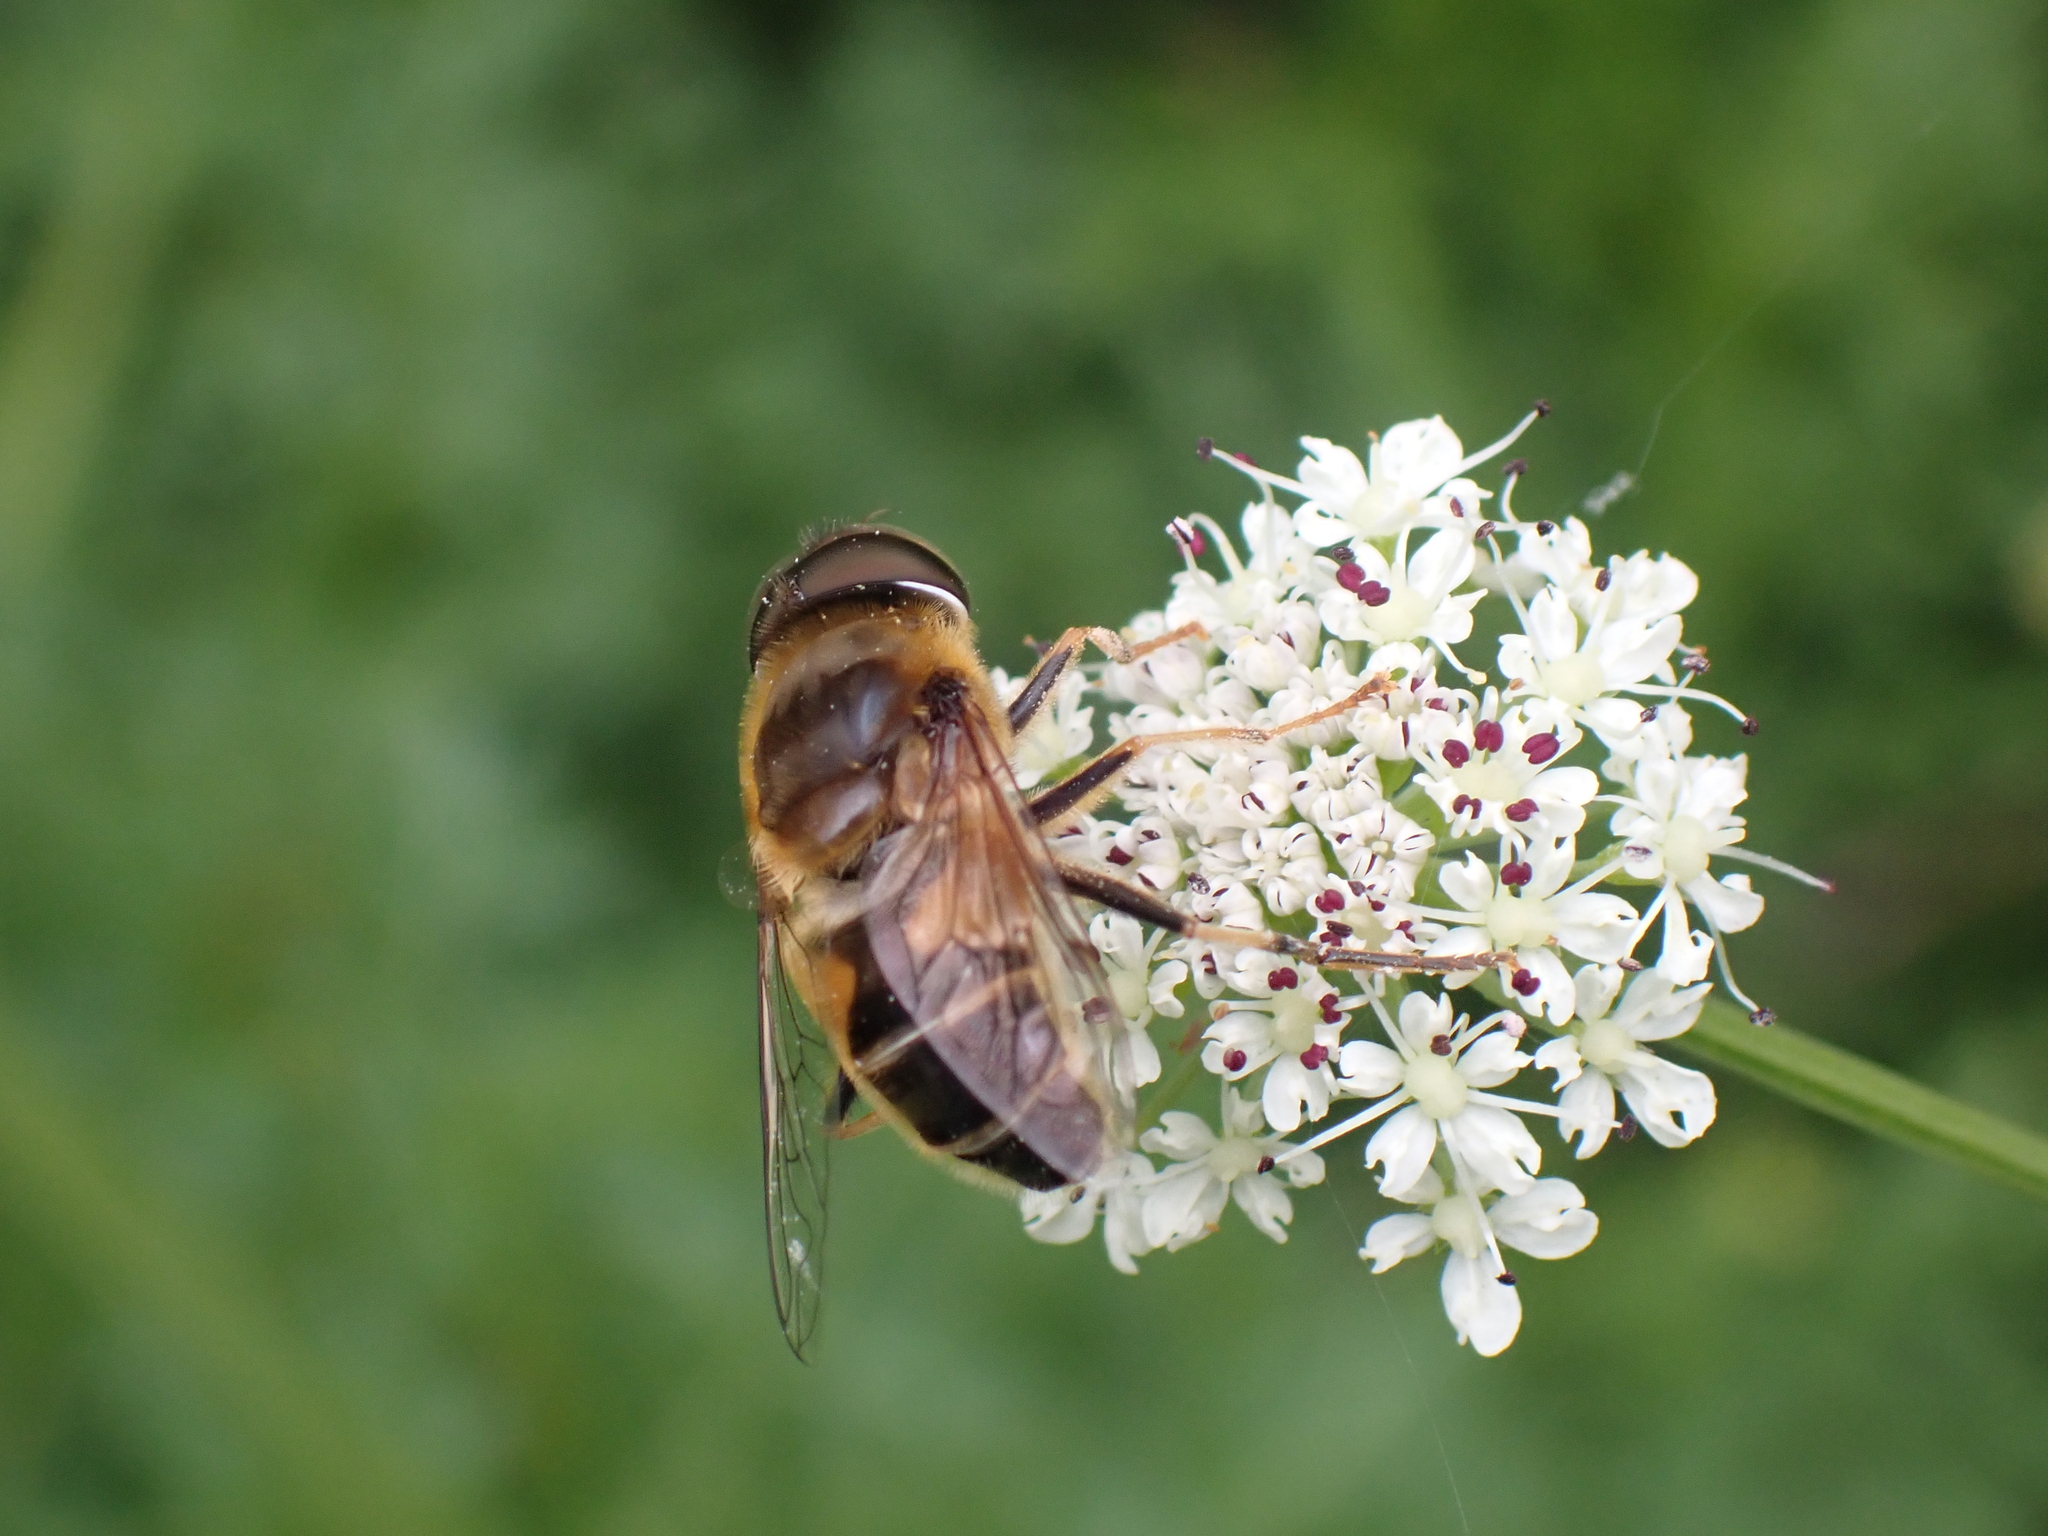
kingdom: Animalia
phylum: Arthropoda
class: Insecta
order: Diptera
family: Syrphidae
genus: Eristalis
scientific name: Eristalis pertinax
